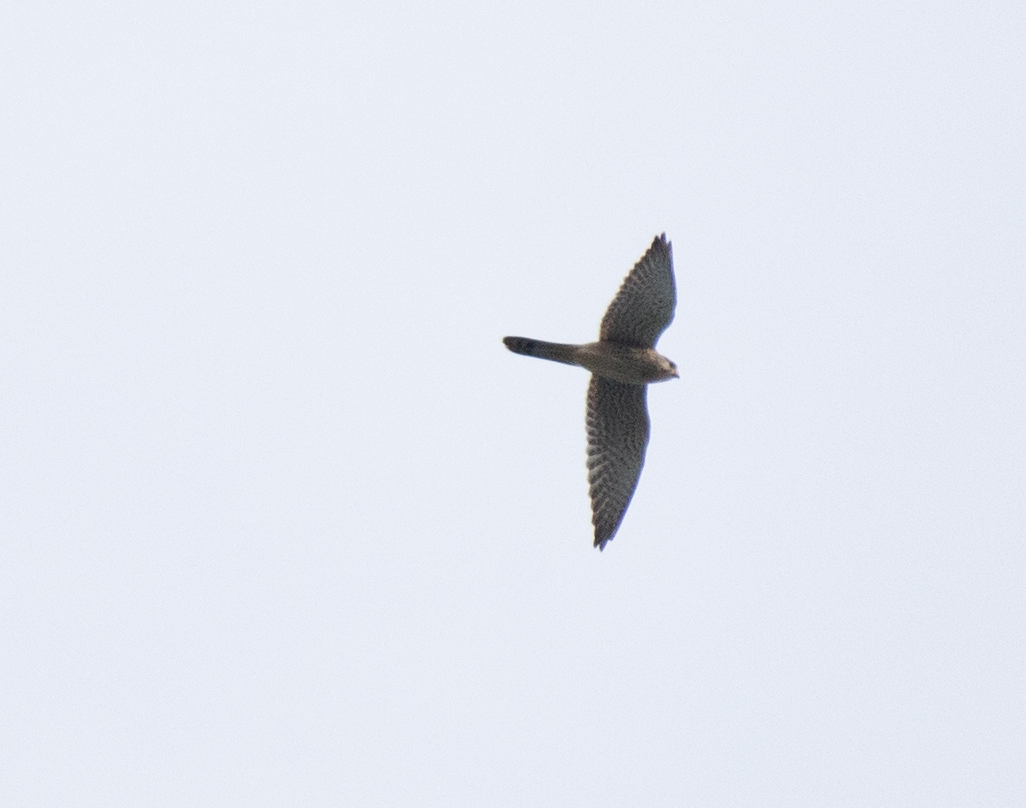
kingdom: Animalia
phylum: Chordata
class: Aves
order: Falconiformes
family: Falconidae
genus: Falco
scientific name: Falco tinnunculus
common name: Common kestrel
